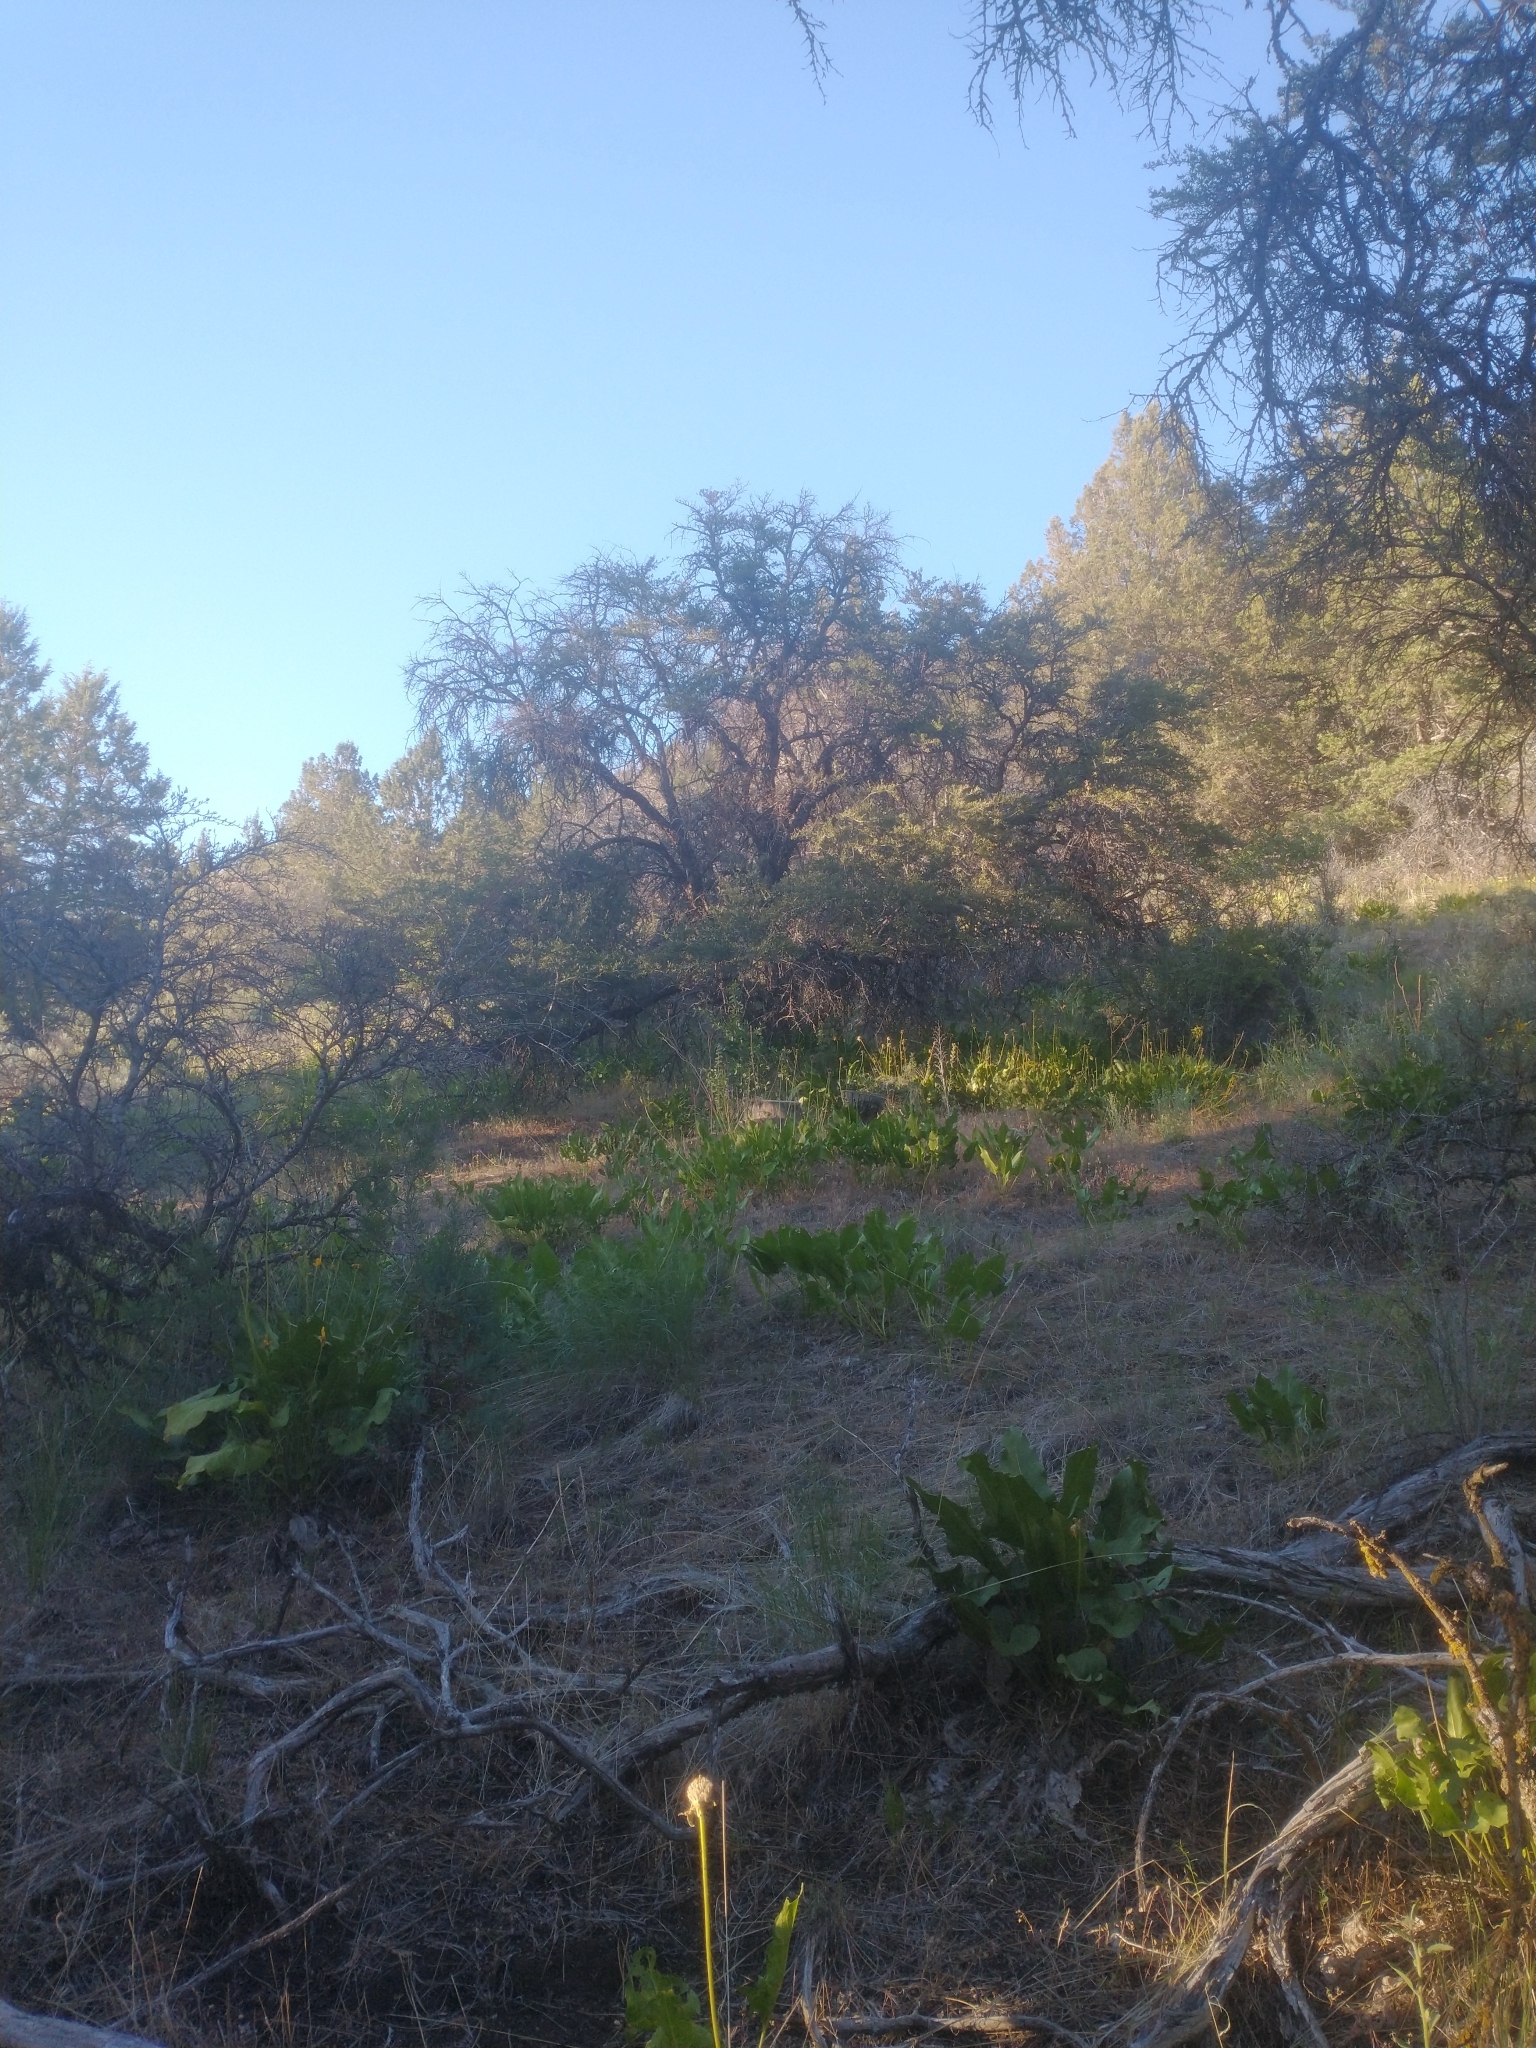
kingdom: Plantae
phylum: Tracheophyta
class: Magnoliopsida
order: Rosales
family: Rosaceae
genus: Cercocarpus
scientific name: Cercocarpus ledifolius
